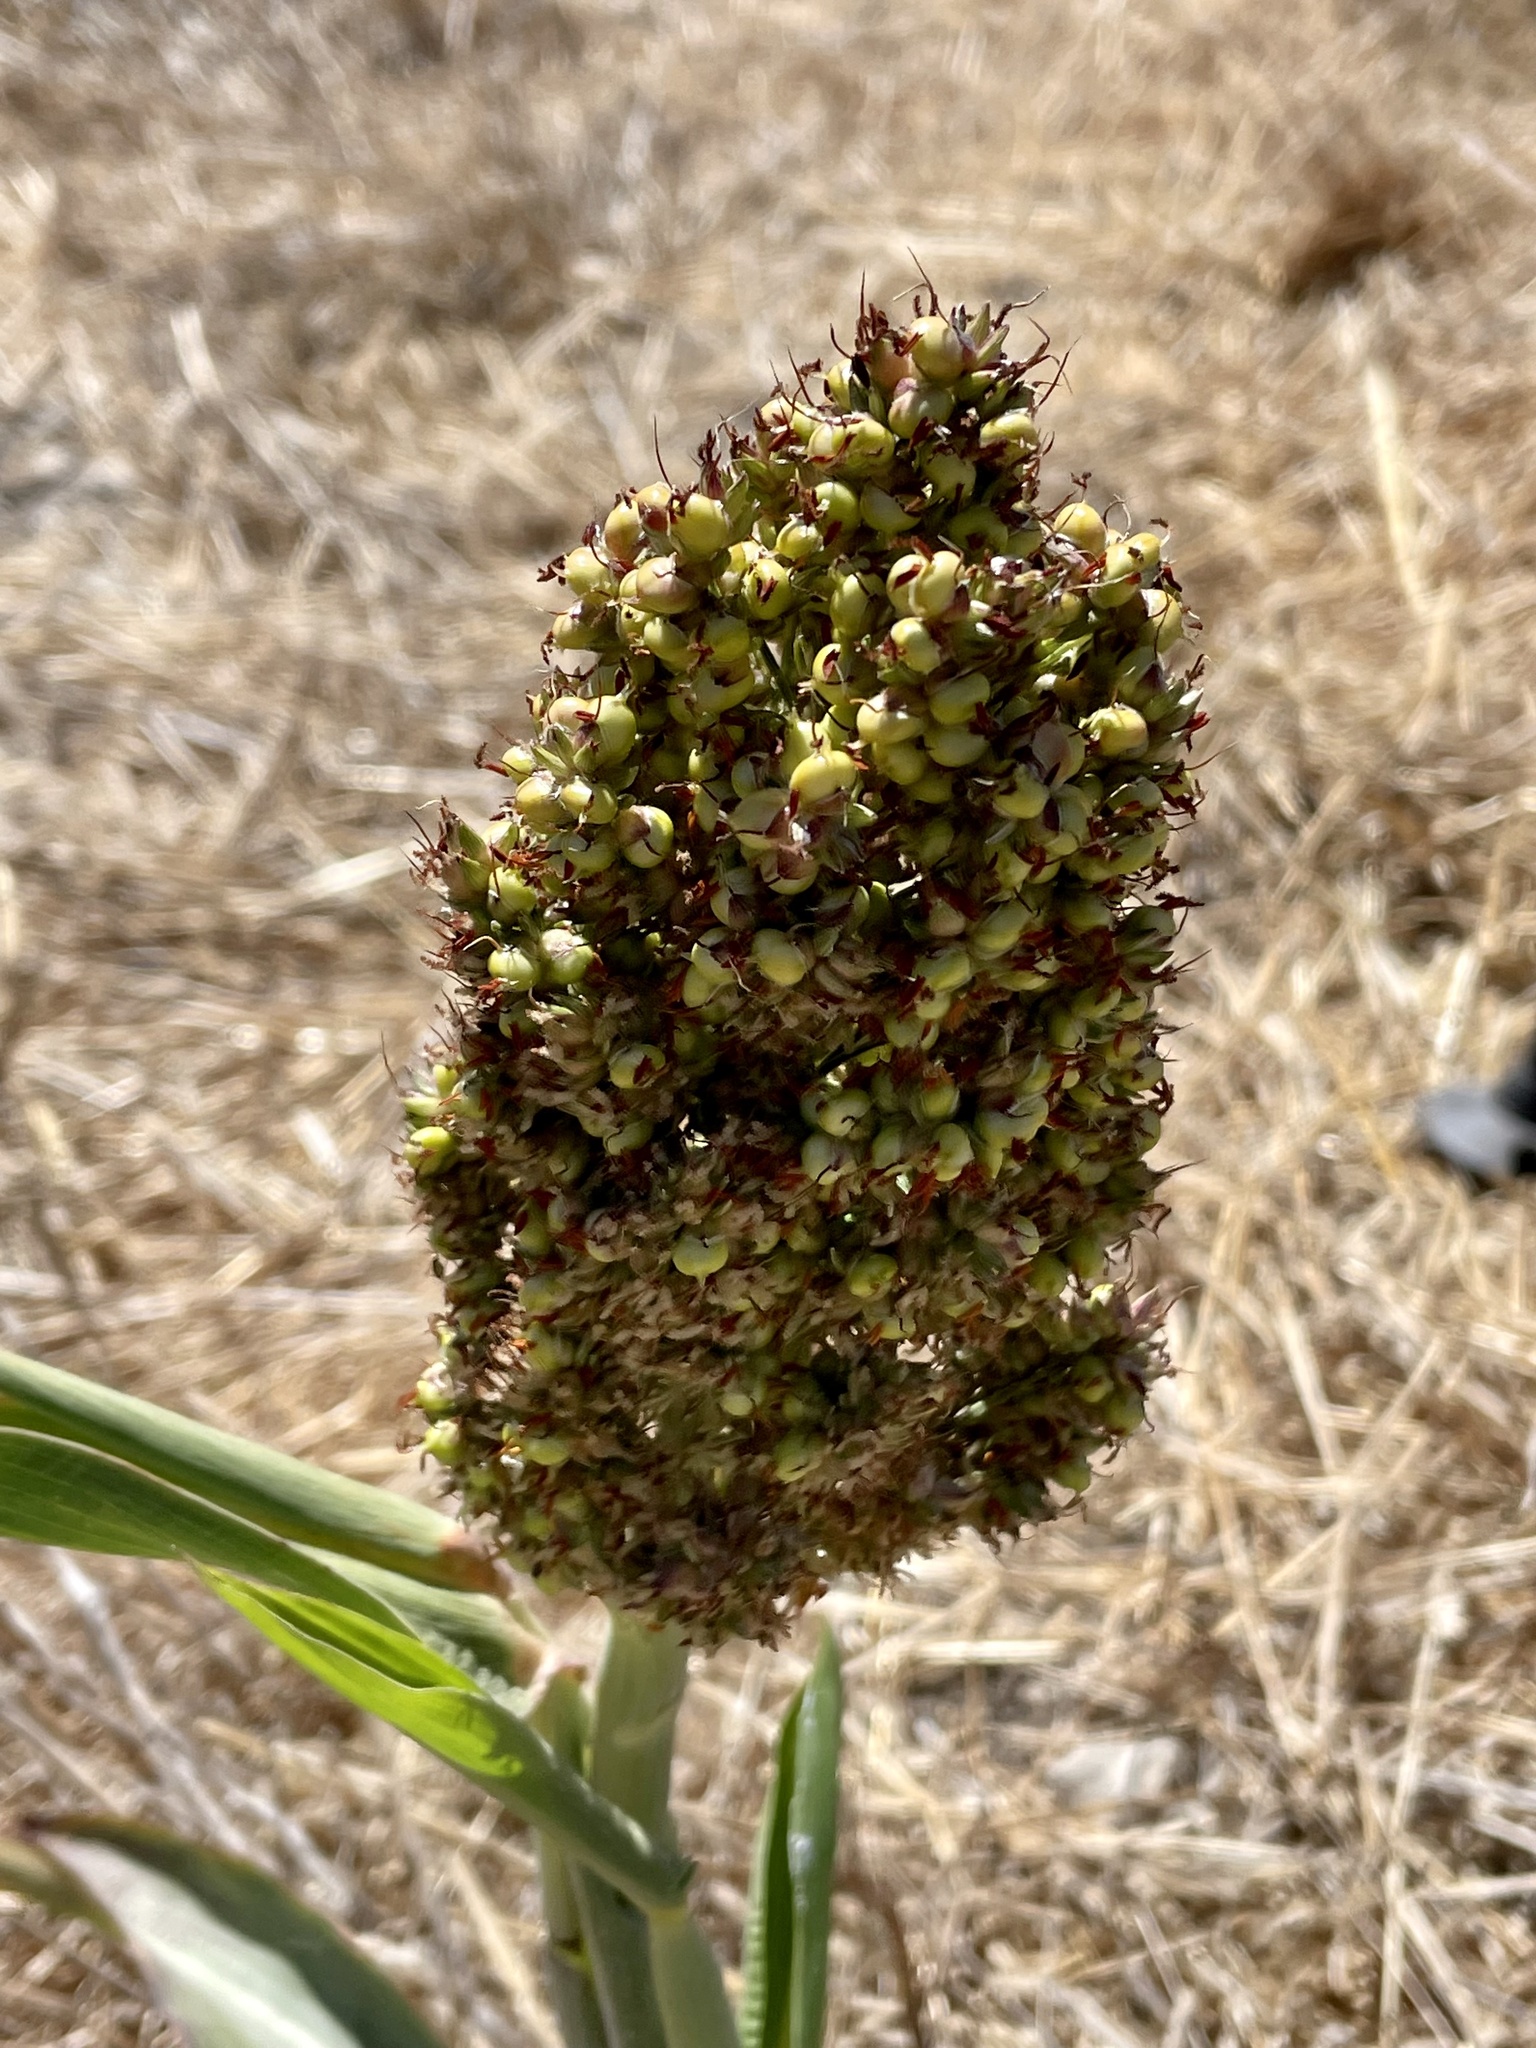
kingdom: Plantae
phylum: Tracheophyta
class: Liliopsida
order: Poales
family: Poaceae
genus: Sorghum
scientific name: Sorghum bicolor
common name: Sorghum
